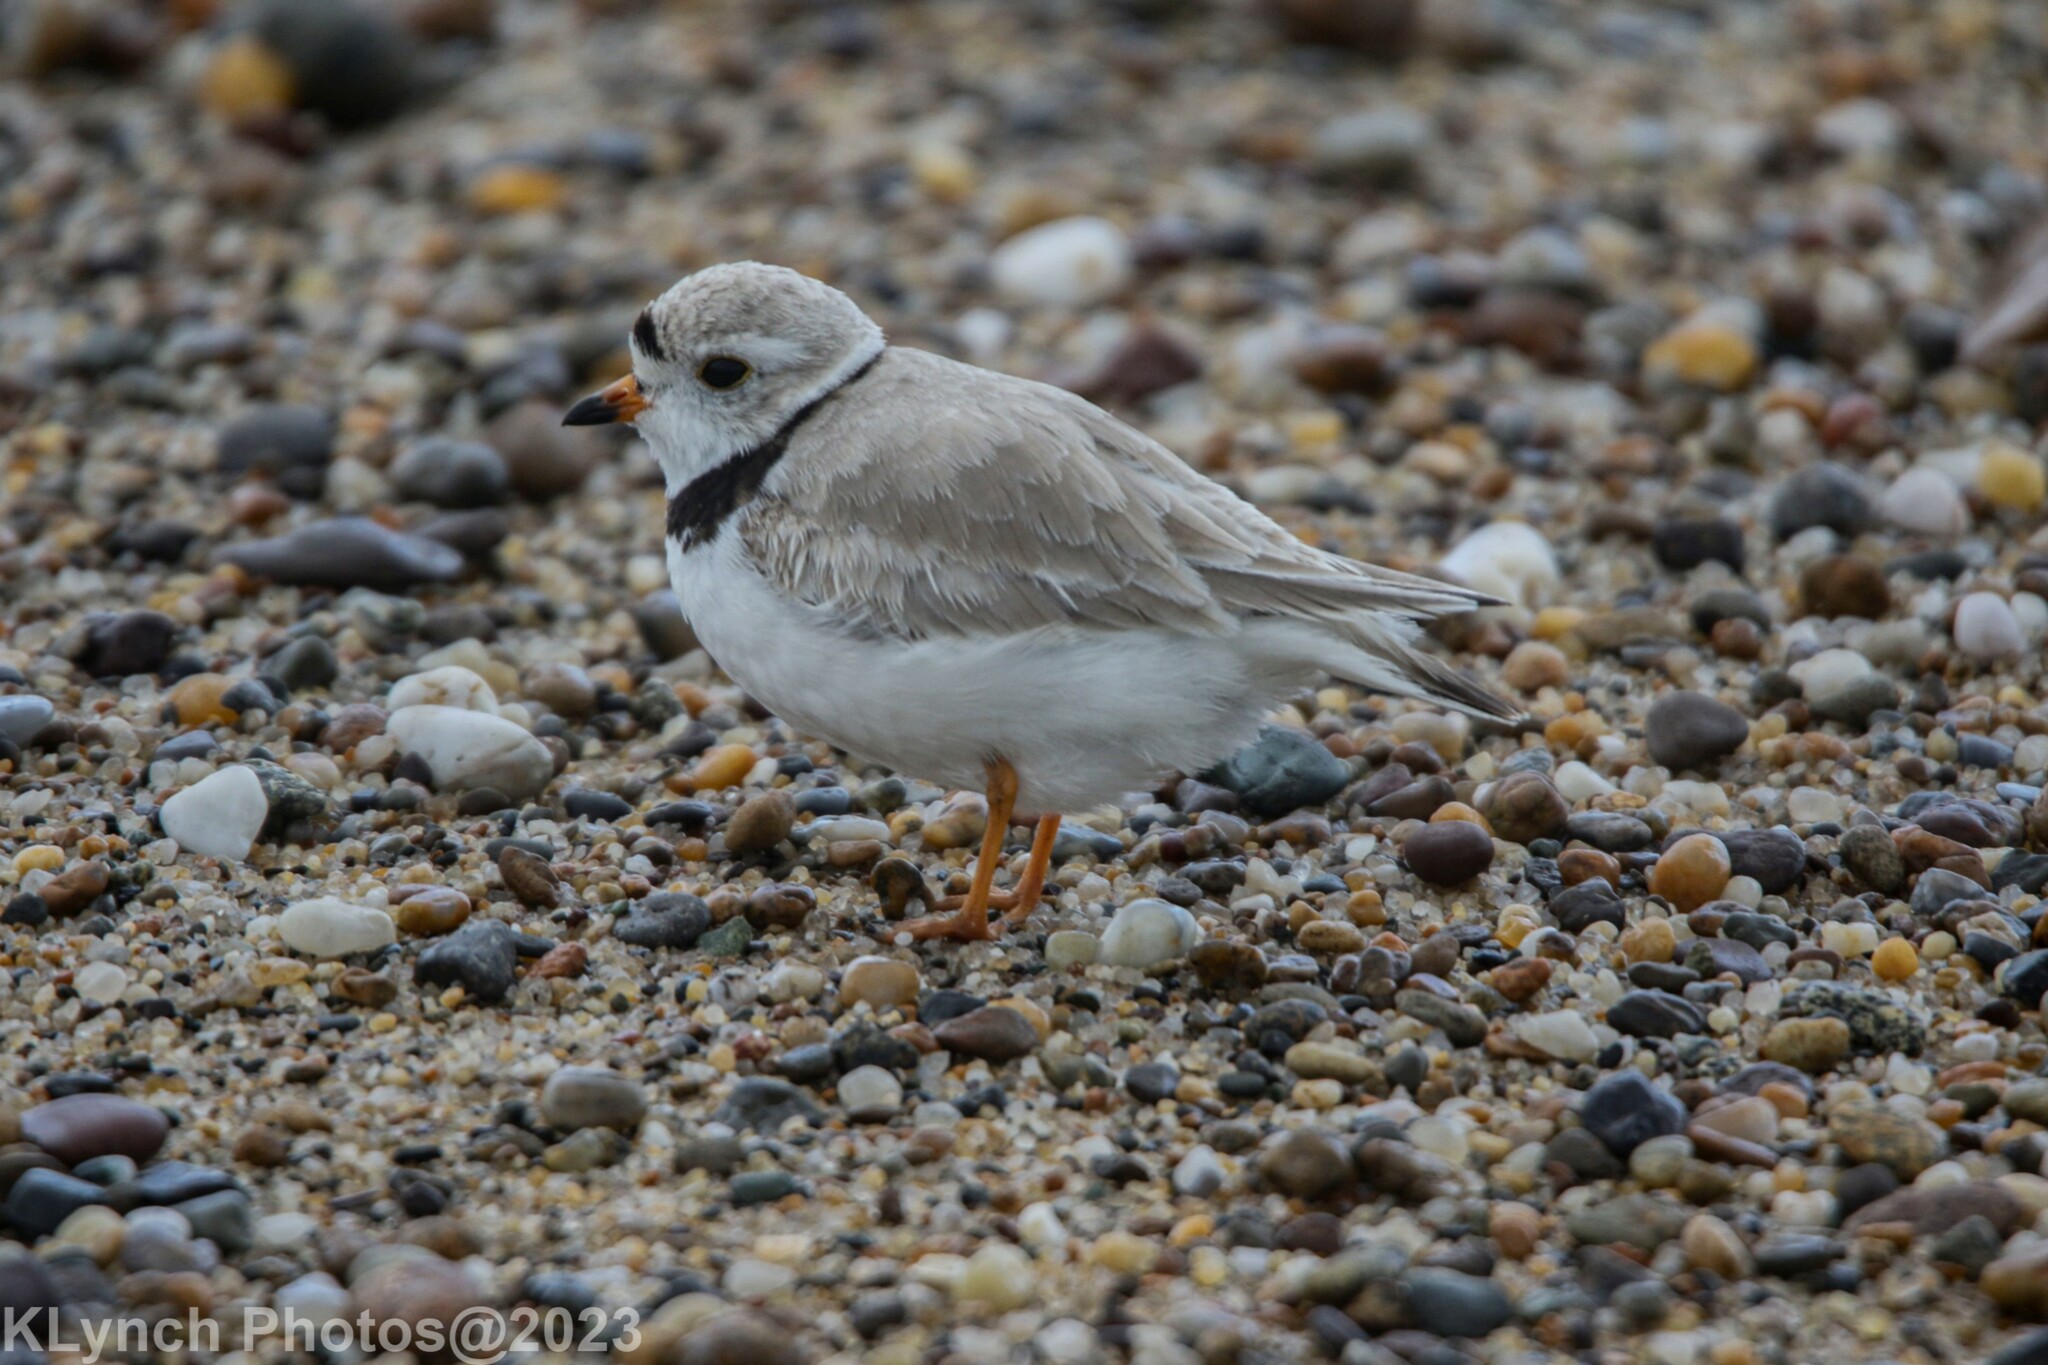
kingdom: Animalia
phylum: Chordata
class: Aves
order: Charadriiformes
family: Charadriidae
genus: Charadrius
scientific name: Charadrius melodus
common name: Piping plover
